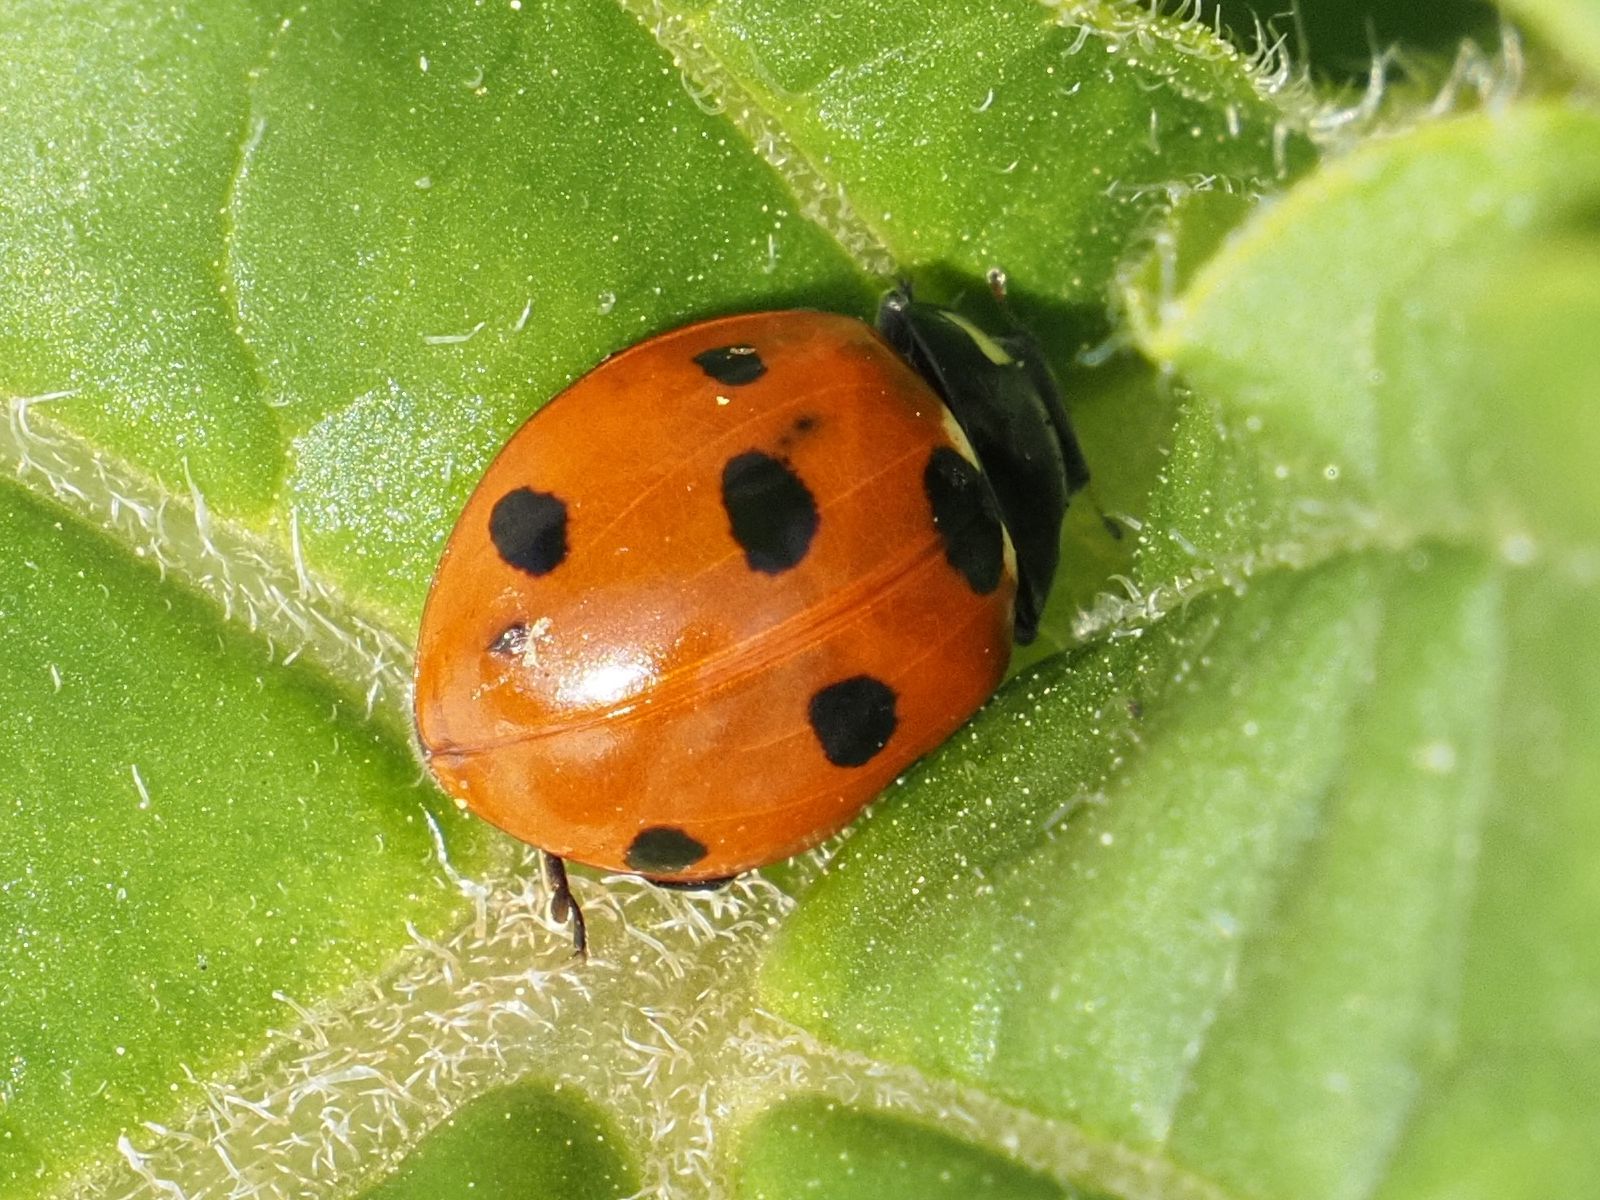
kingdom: Animalia
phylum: Arthropoda
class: Insecta
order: Coleoptera
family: Coccinellidae
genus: Coccinella
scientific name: Coccinella septempunctata
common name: Sevenspotted lady beetle
